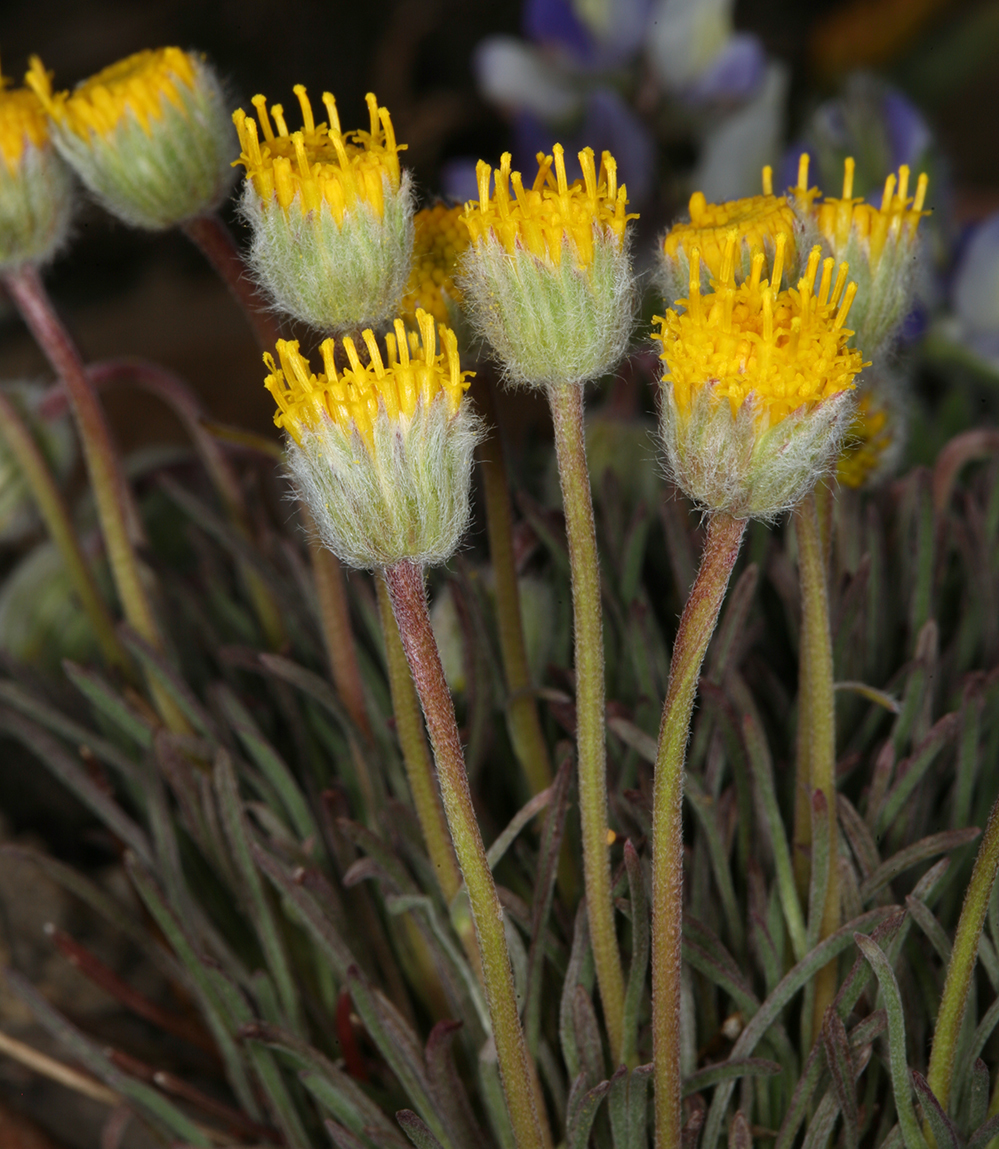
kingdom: Plantae
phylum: Tracheophyta
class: Magnoliopsida
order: Asterales
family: Asteraceae
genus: Erigeron
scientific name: Erigeron bloomeri
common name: Bloomer's fleabane
